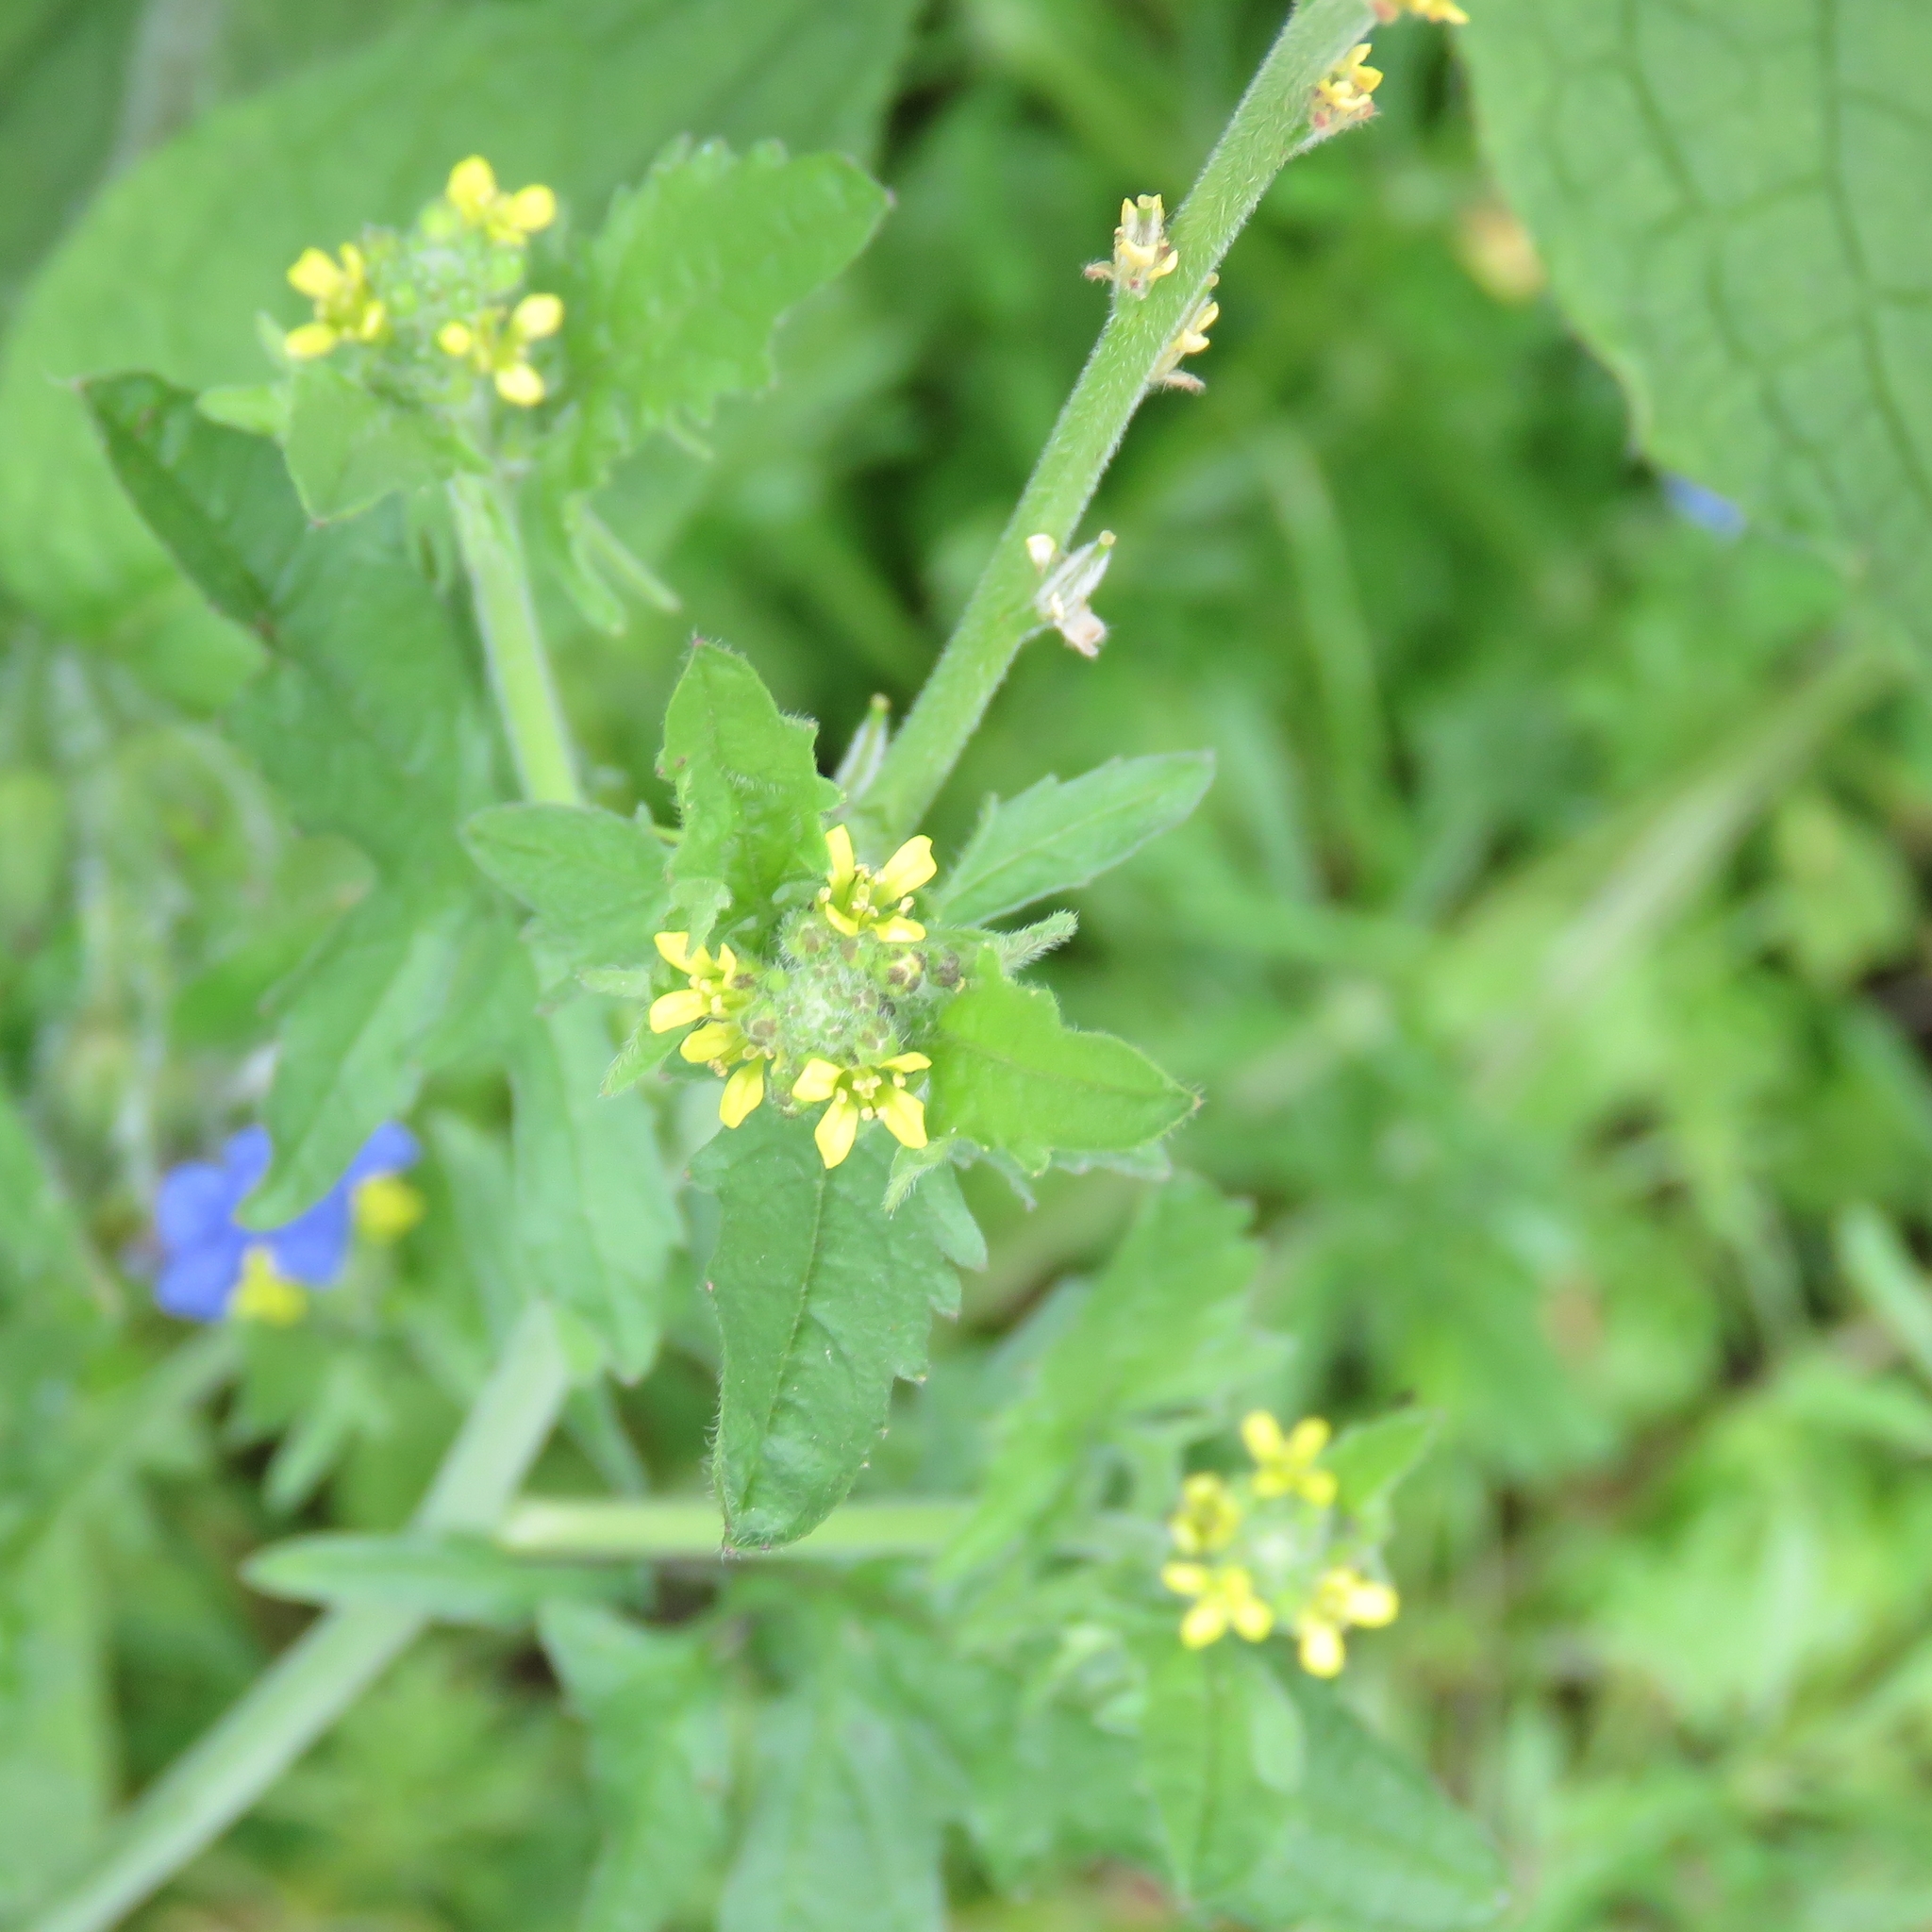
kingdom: Plantae
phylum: Tracheophyta
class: Magnoliopsida
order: Brassicales
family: Brassicaceae
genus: Sisymbrium
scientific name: Sisymbrium officinale
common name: Hedge mustard
